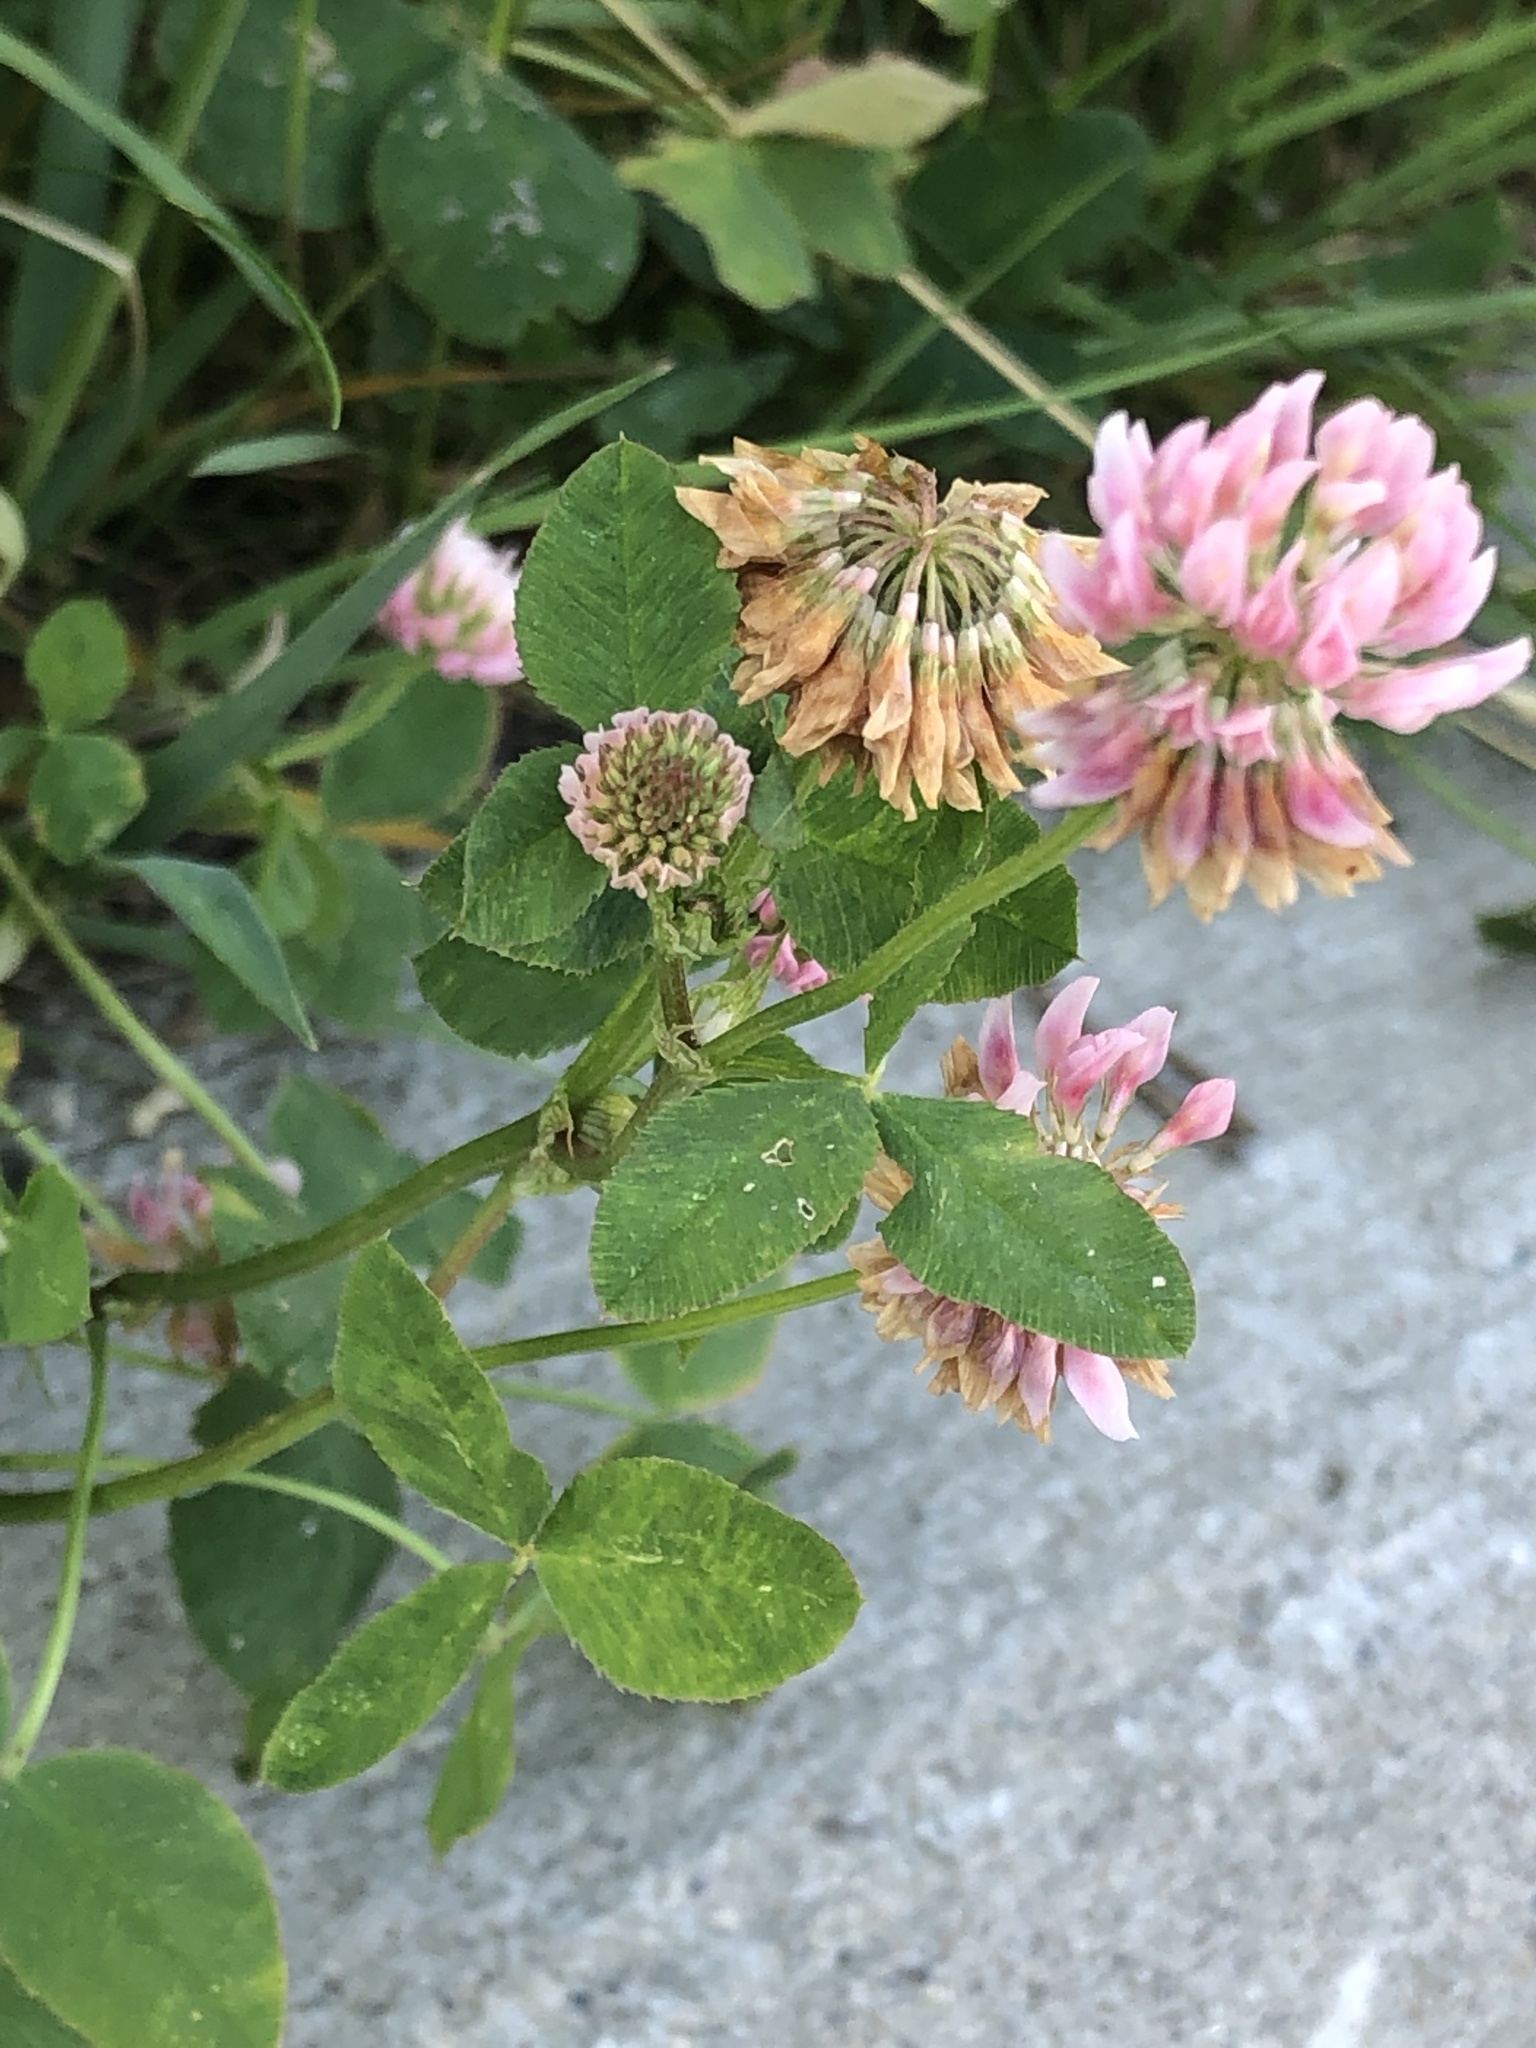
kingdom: Plantae
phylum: Tracheophyta
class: Magnoliopsida
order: Fabales
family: Fabaceae
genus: Trifolium
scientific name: Trifolium hybridum
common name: Alsike clover
